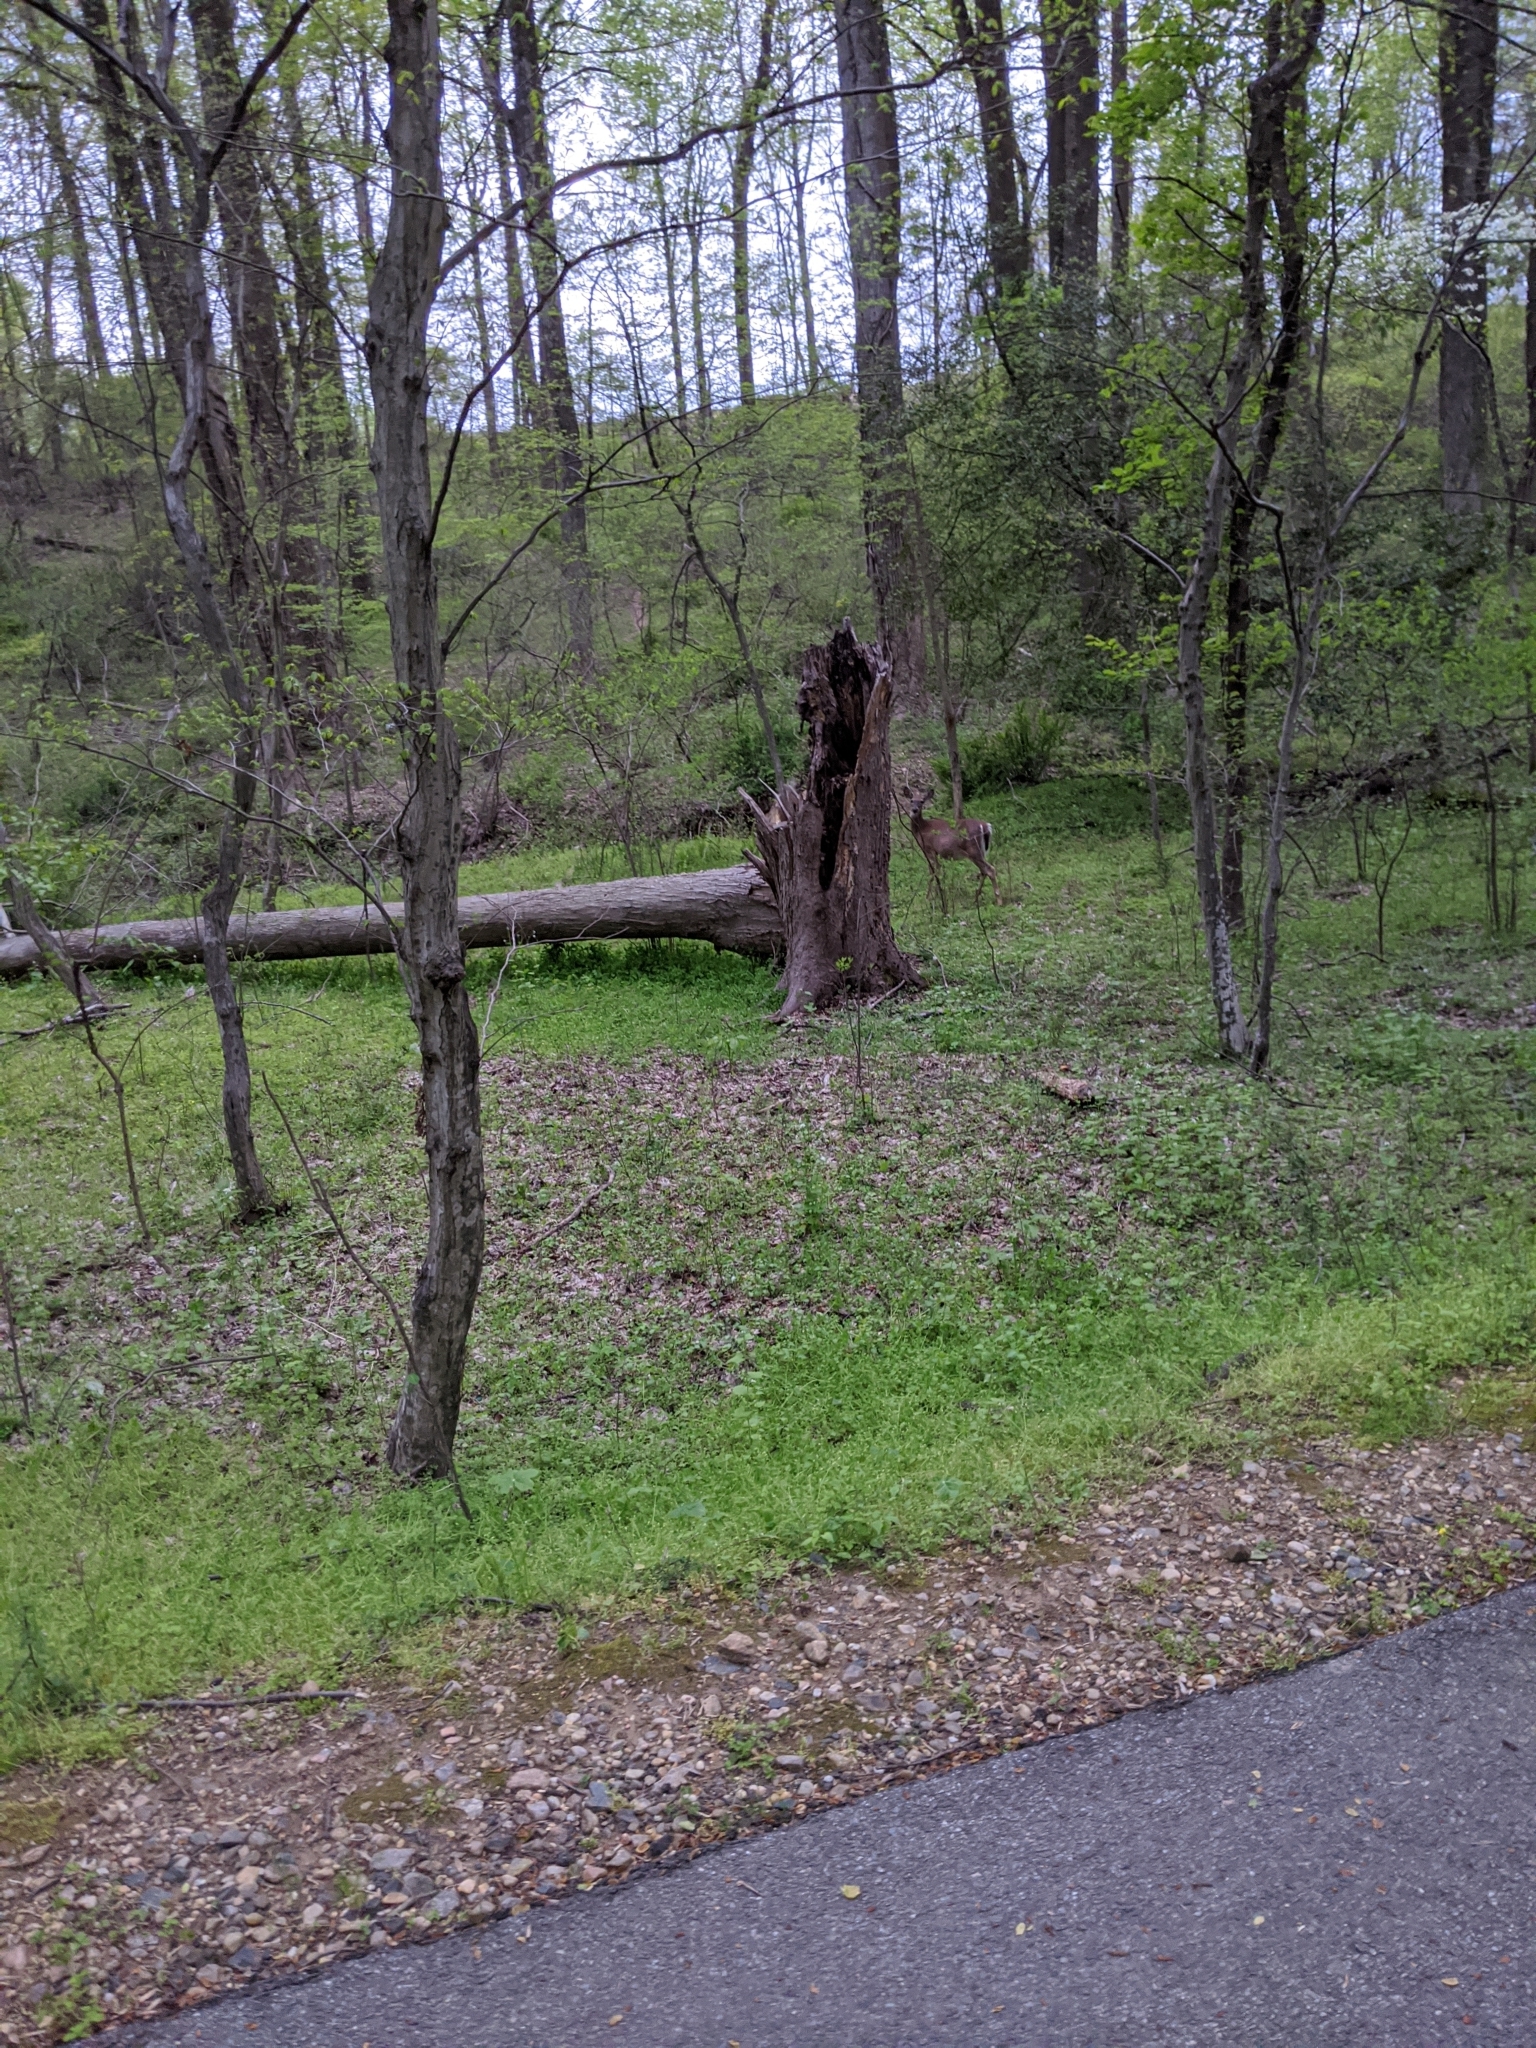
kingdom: Animalia
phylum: Chordata
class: Mammalia
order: Artiodactyla
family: Cervidae
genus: Odocoileus
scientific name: Odocoileus virginianus
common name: White-tailed deer
